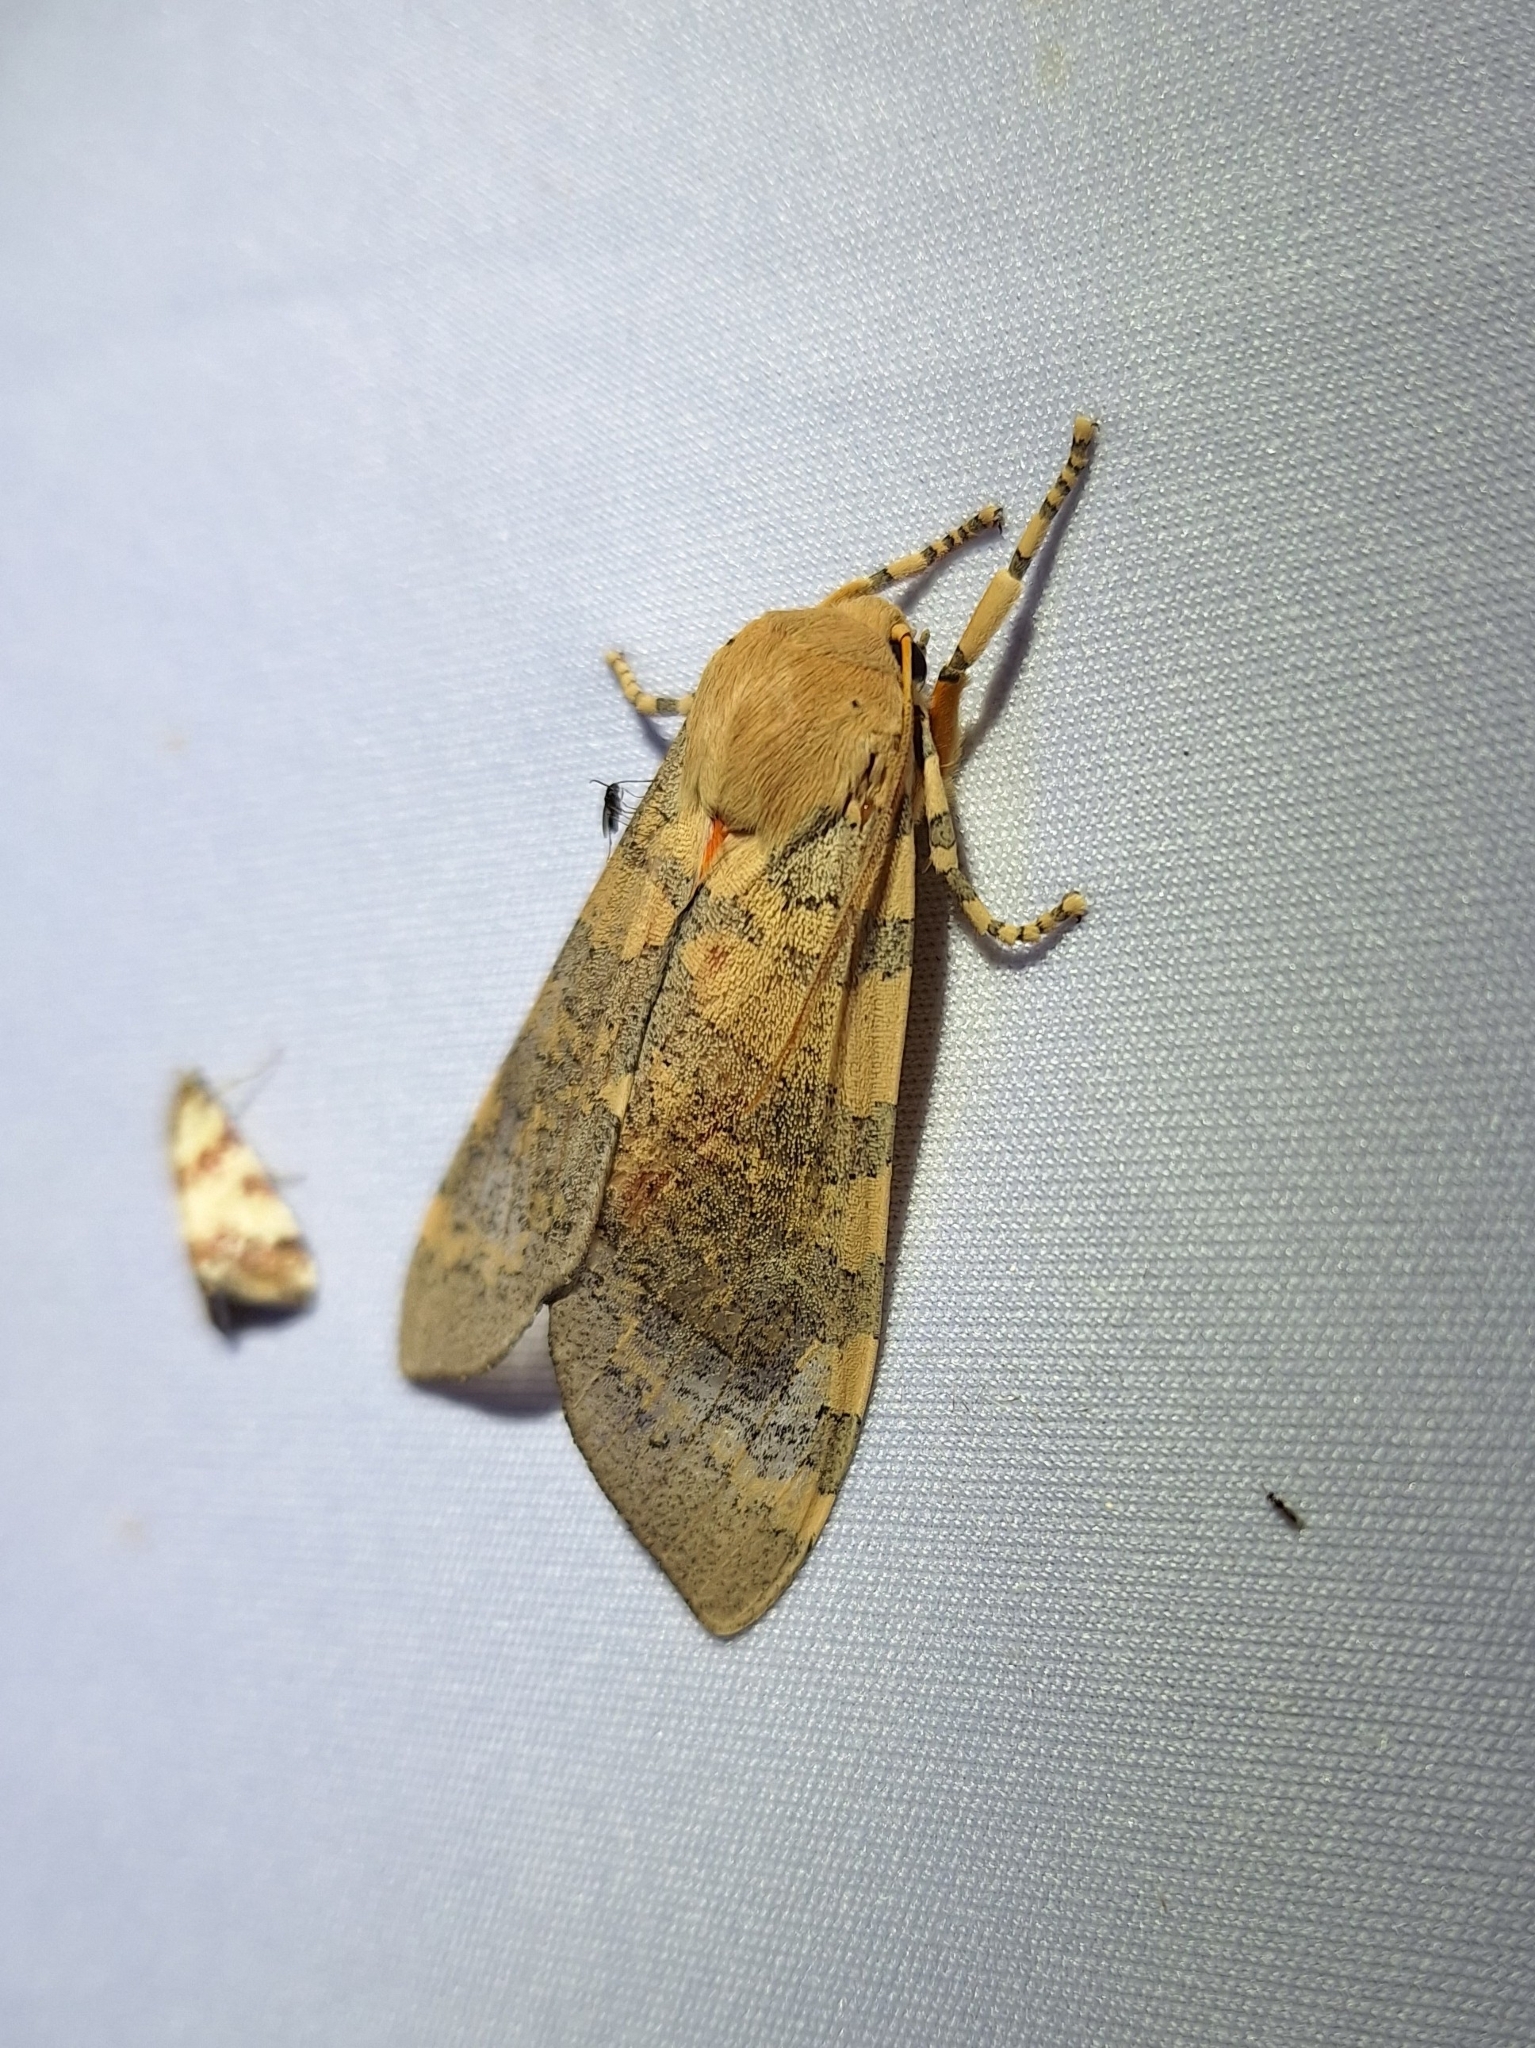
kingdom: Animalia
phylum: Arthropoda
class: Insecta
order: Lepidoptera
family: Erebidae
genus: Apocrisias
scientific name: Apocrisias thaumasta
